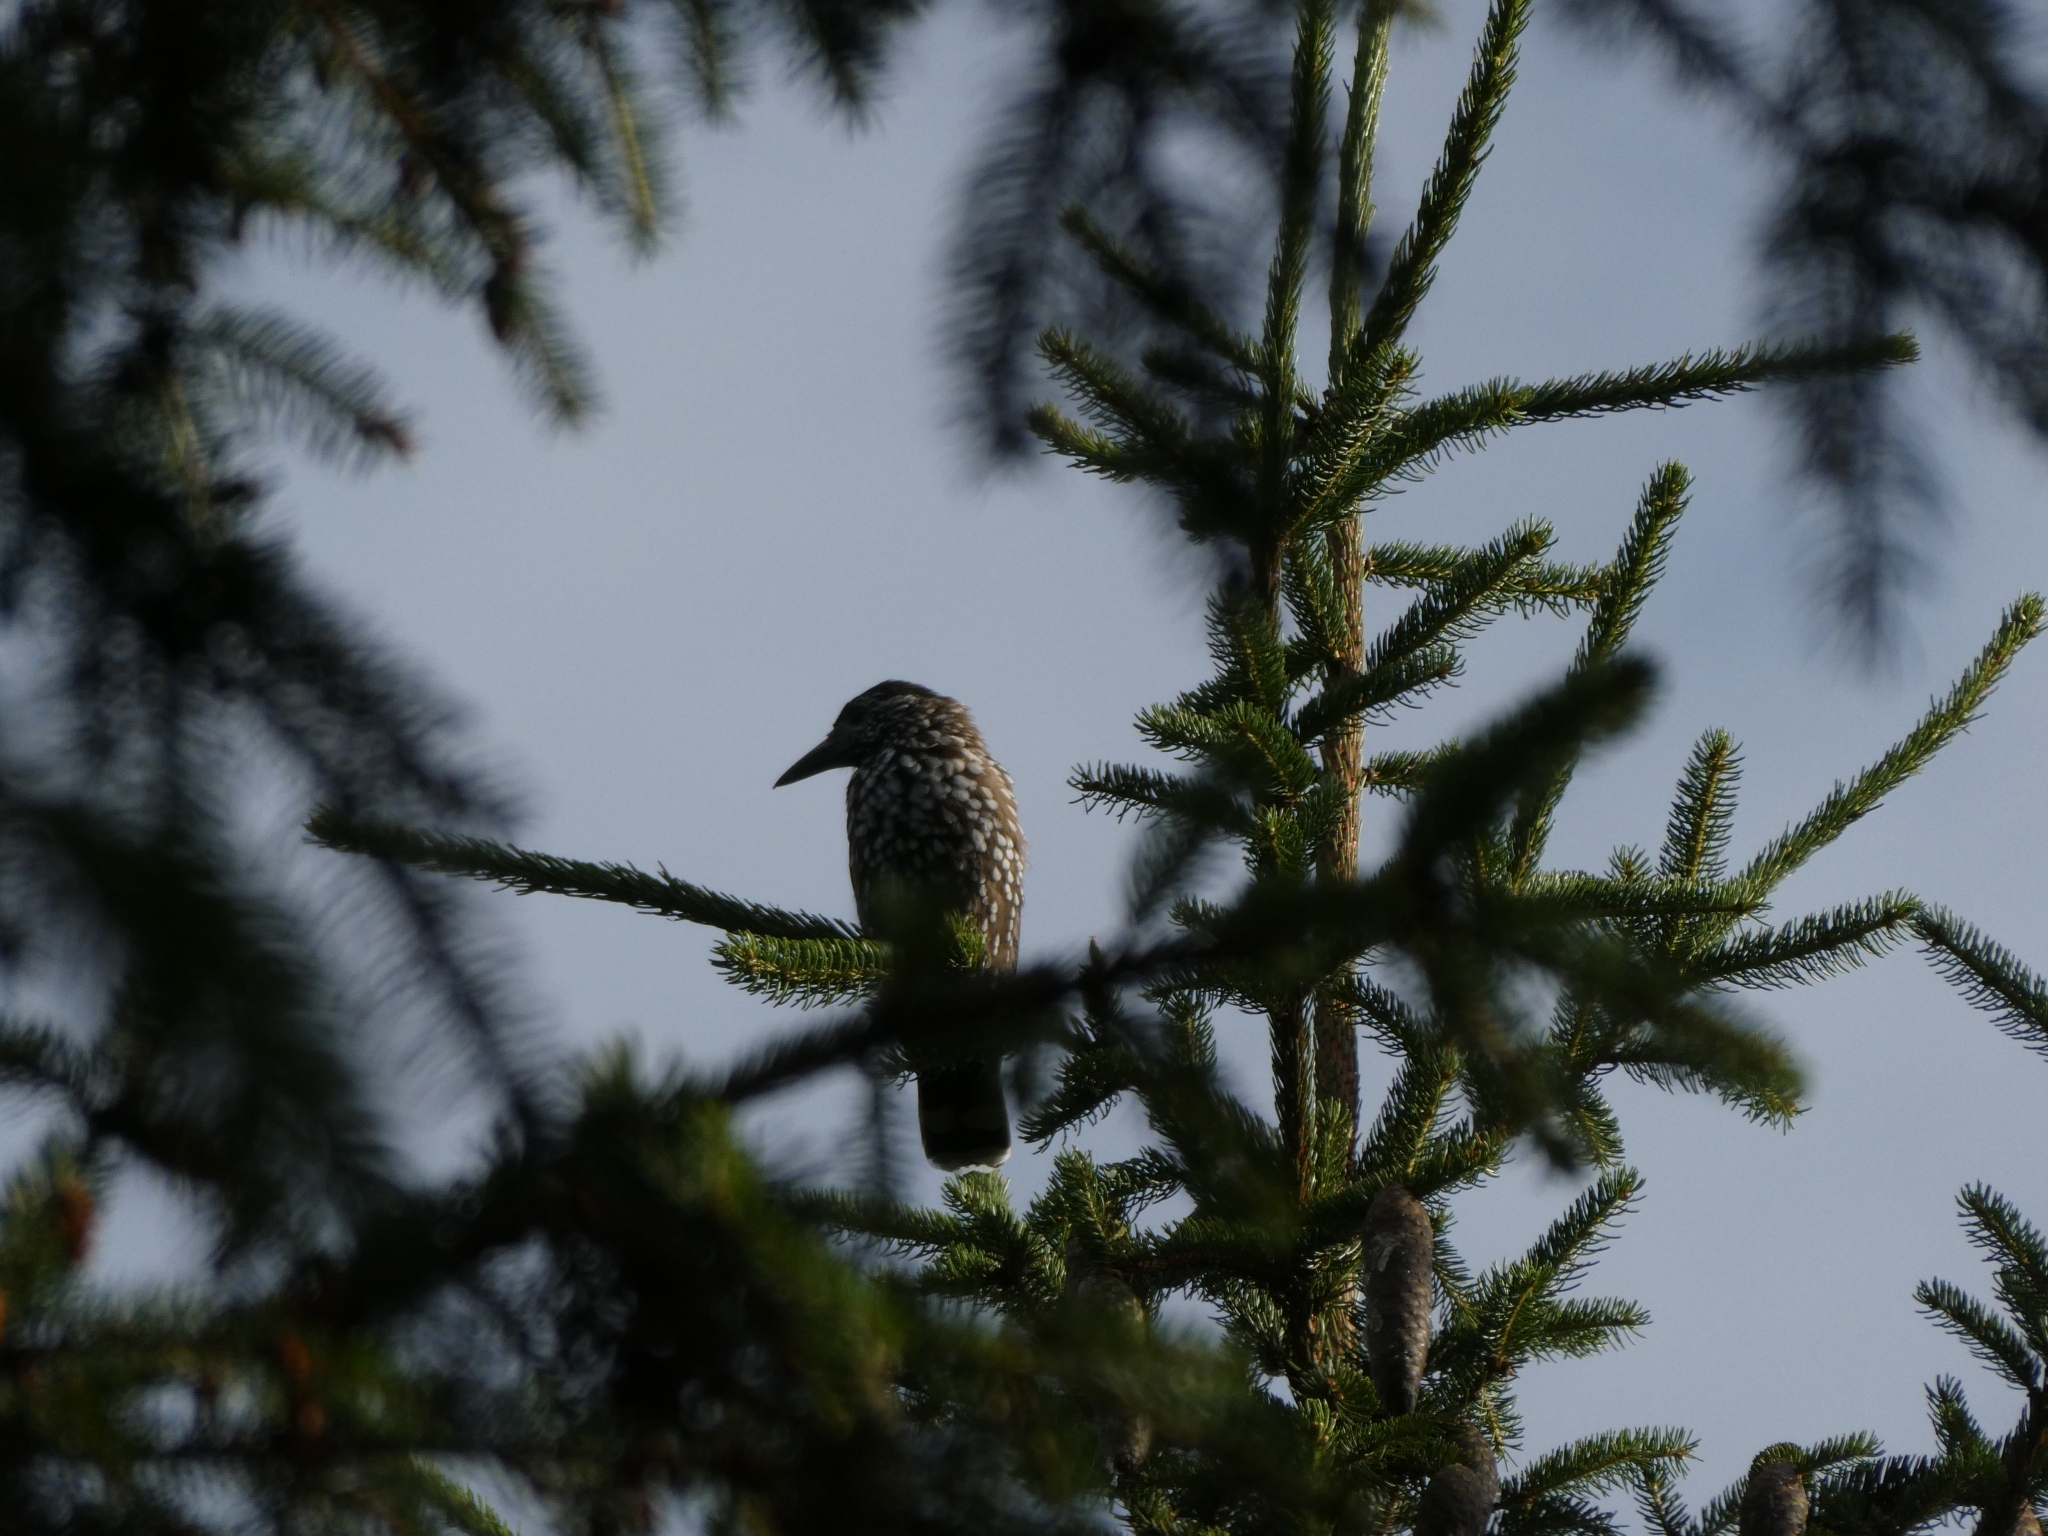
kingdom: Animalia
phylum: Chordata
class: Aves
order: Passeriformes
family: Corvidae
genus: Nucifraga
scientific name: Nucifraga caryocatactes
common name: Spotted nutcracker
